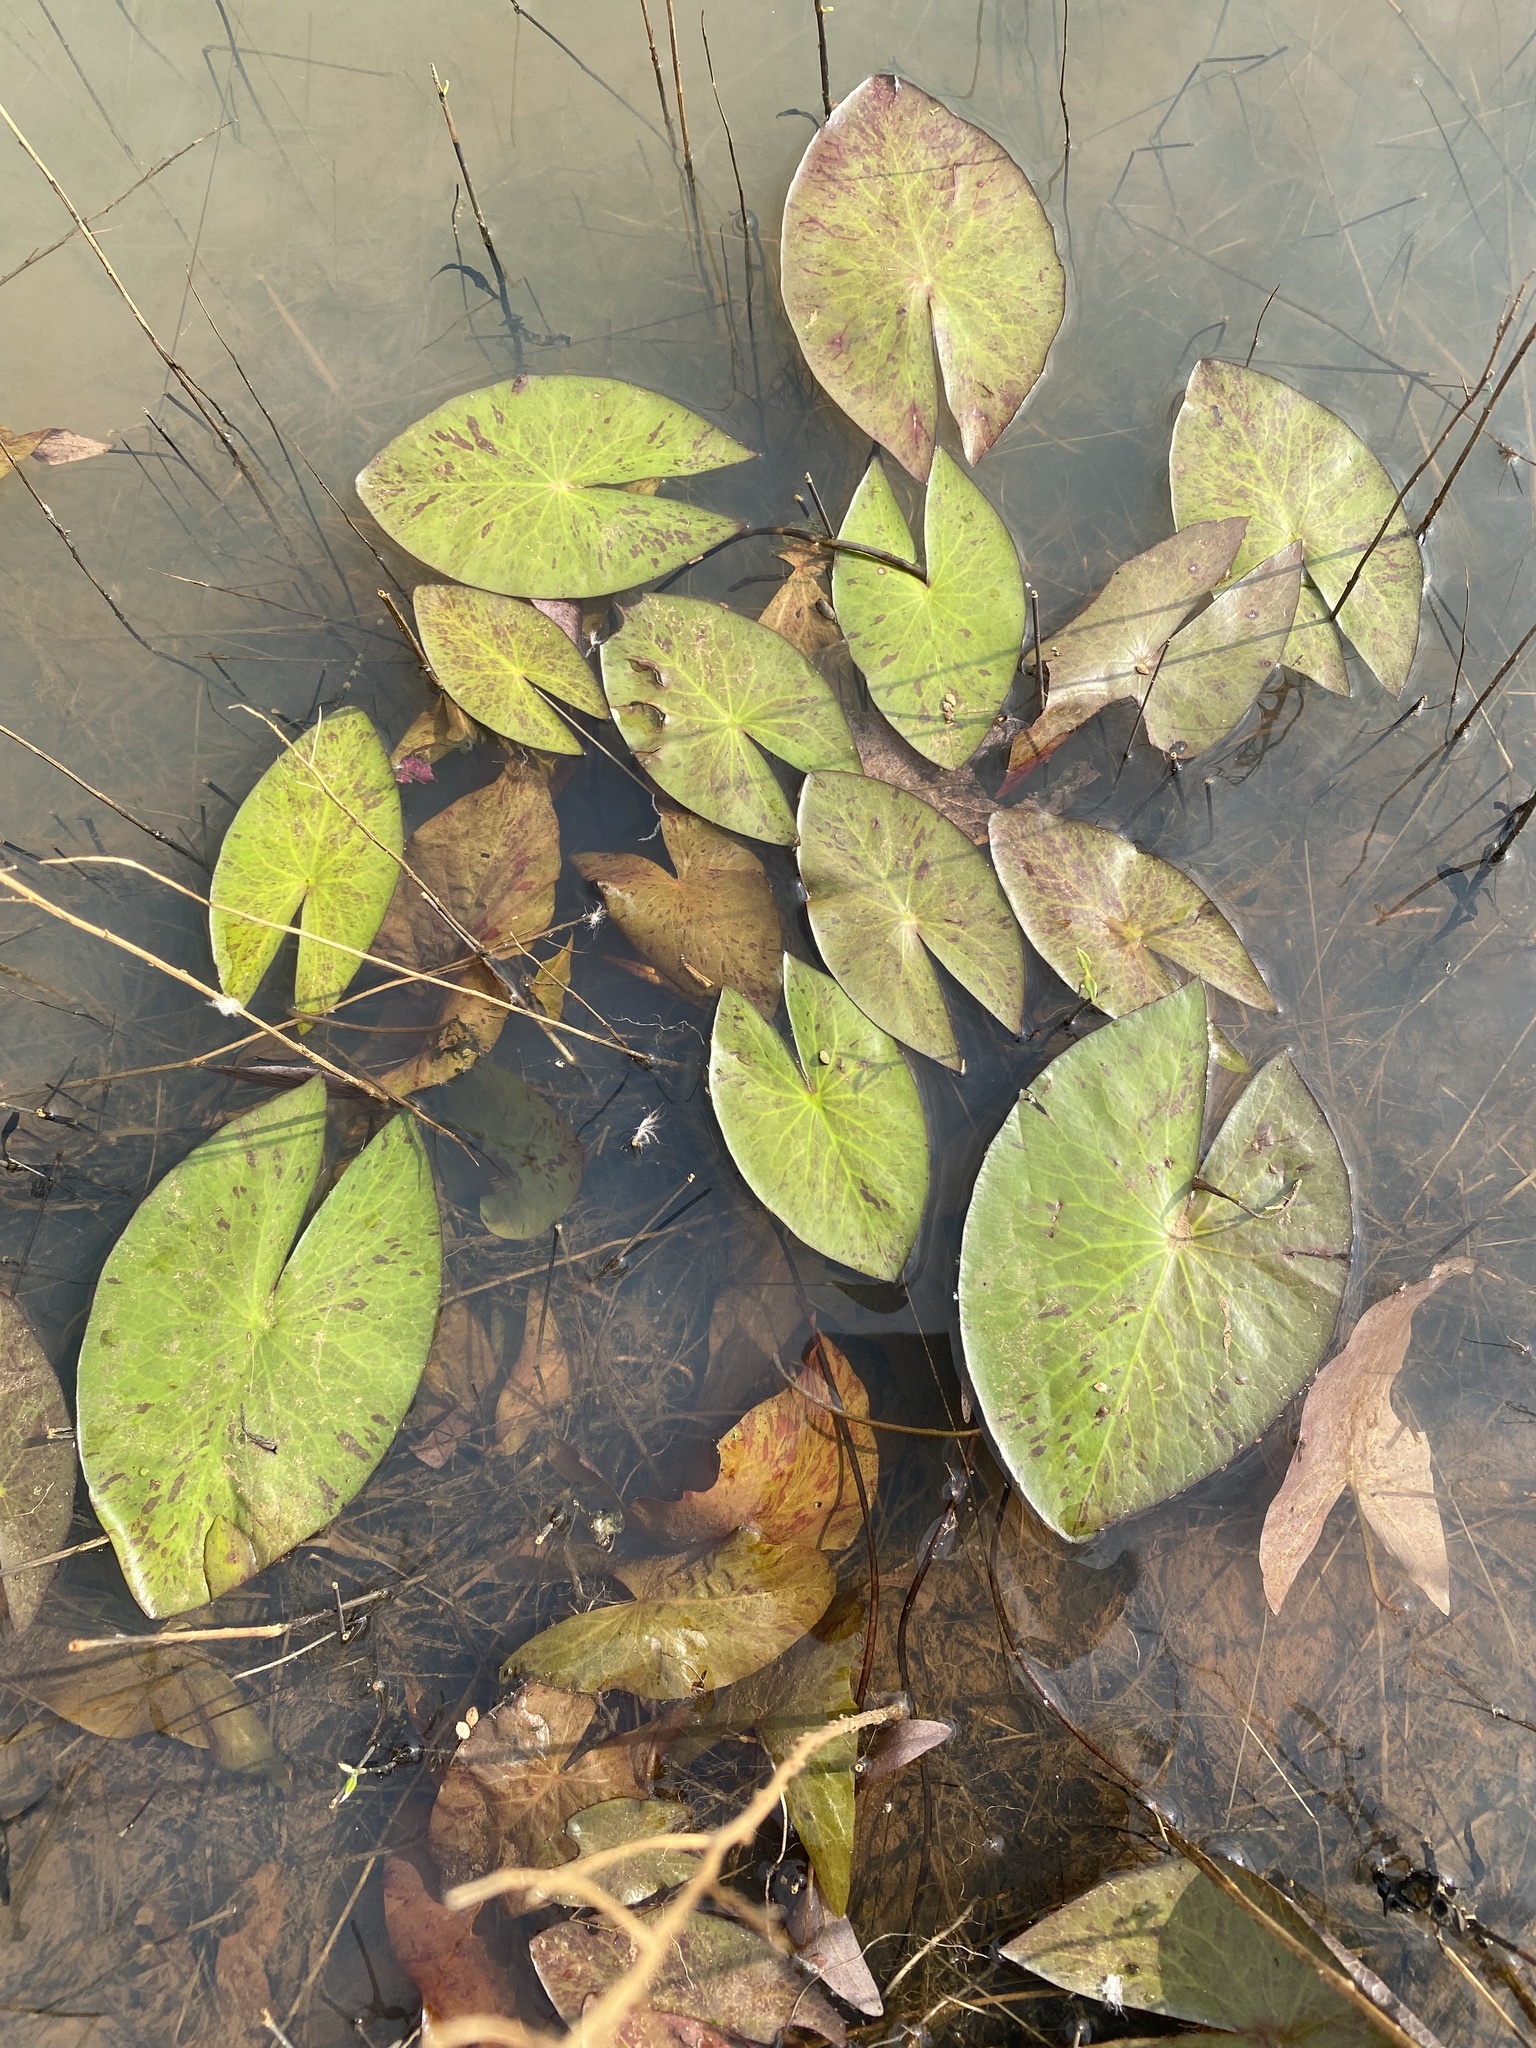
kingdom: Plantae
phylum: Tracheophyta
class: Magnoliopsida
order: Nymphaeales
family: Nymphaeaceae
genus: Nymphaea
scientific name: Nymphaea nouchali
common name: Blue lotus
